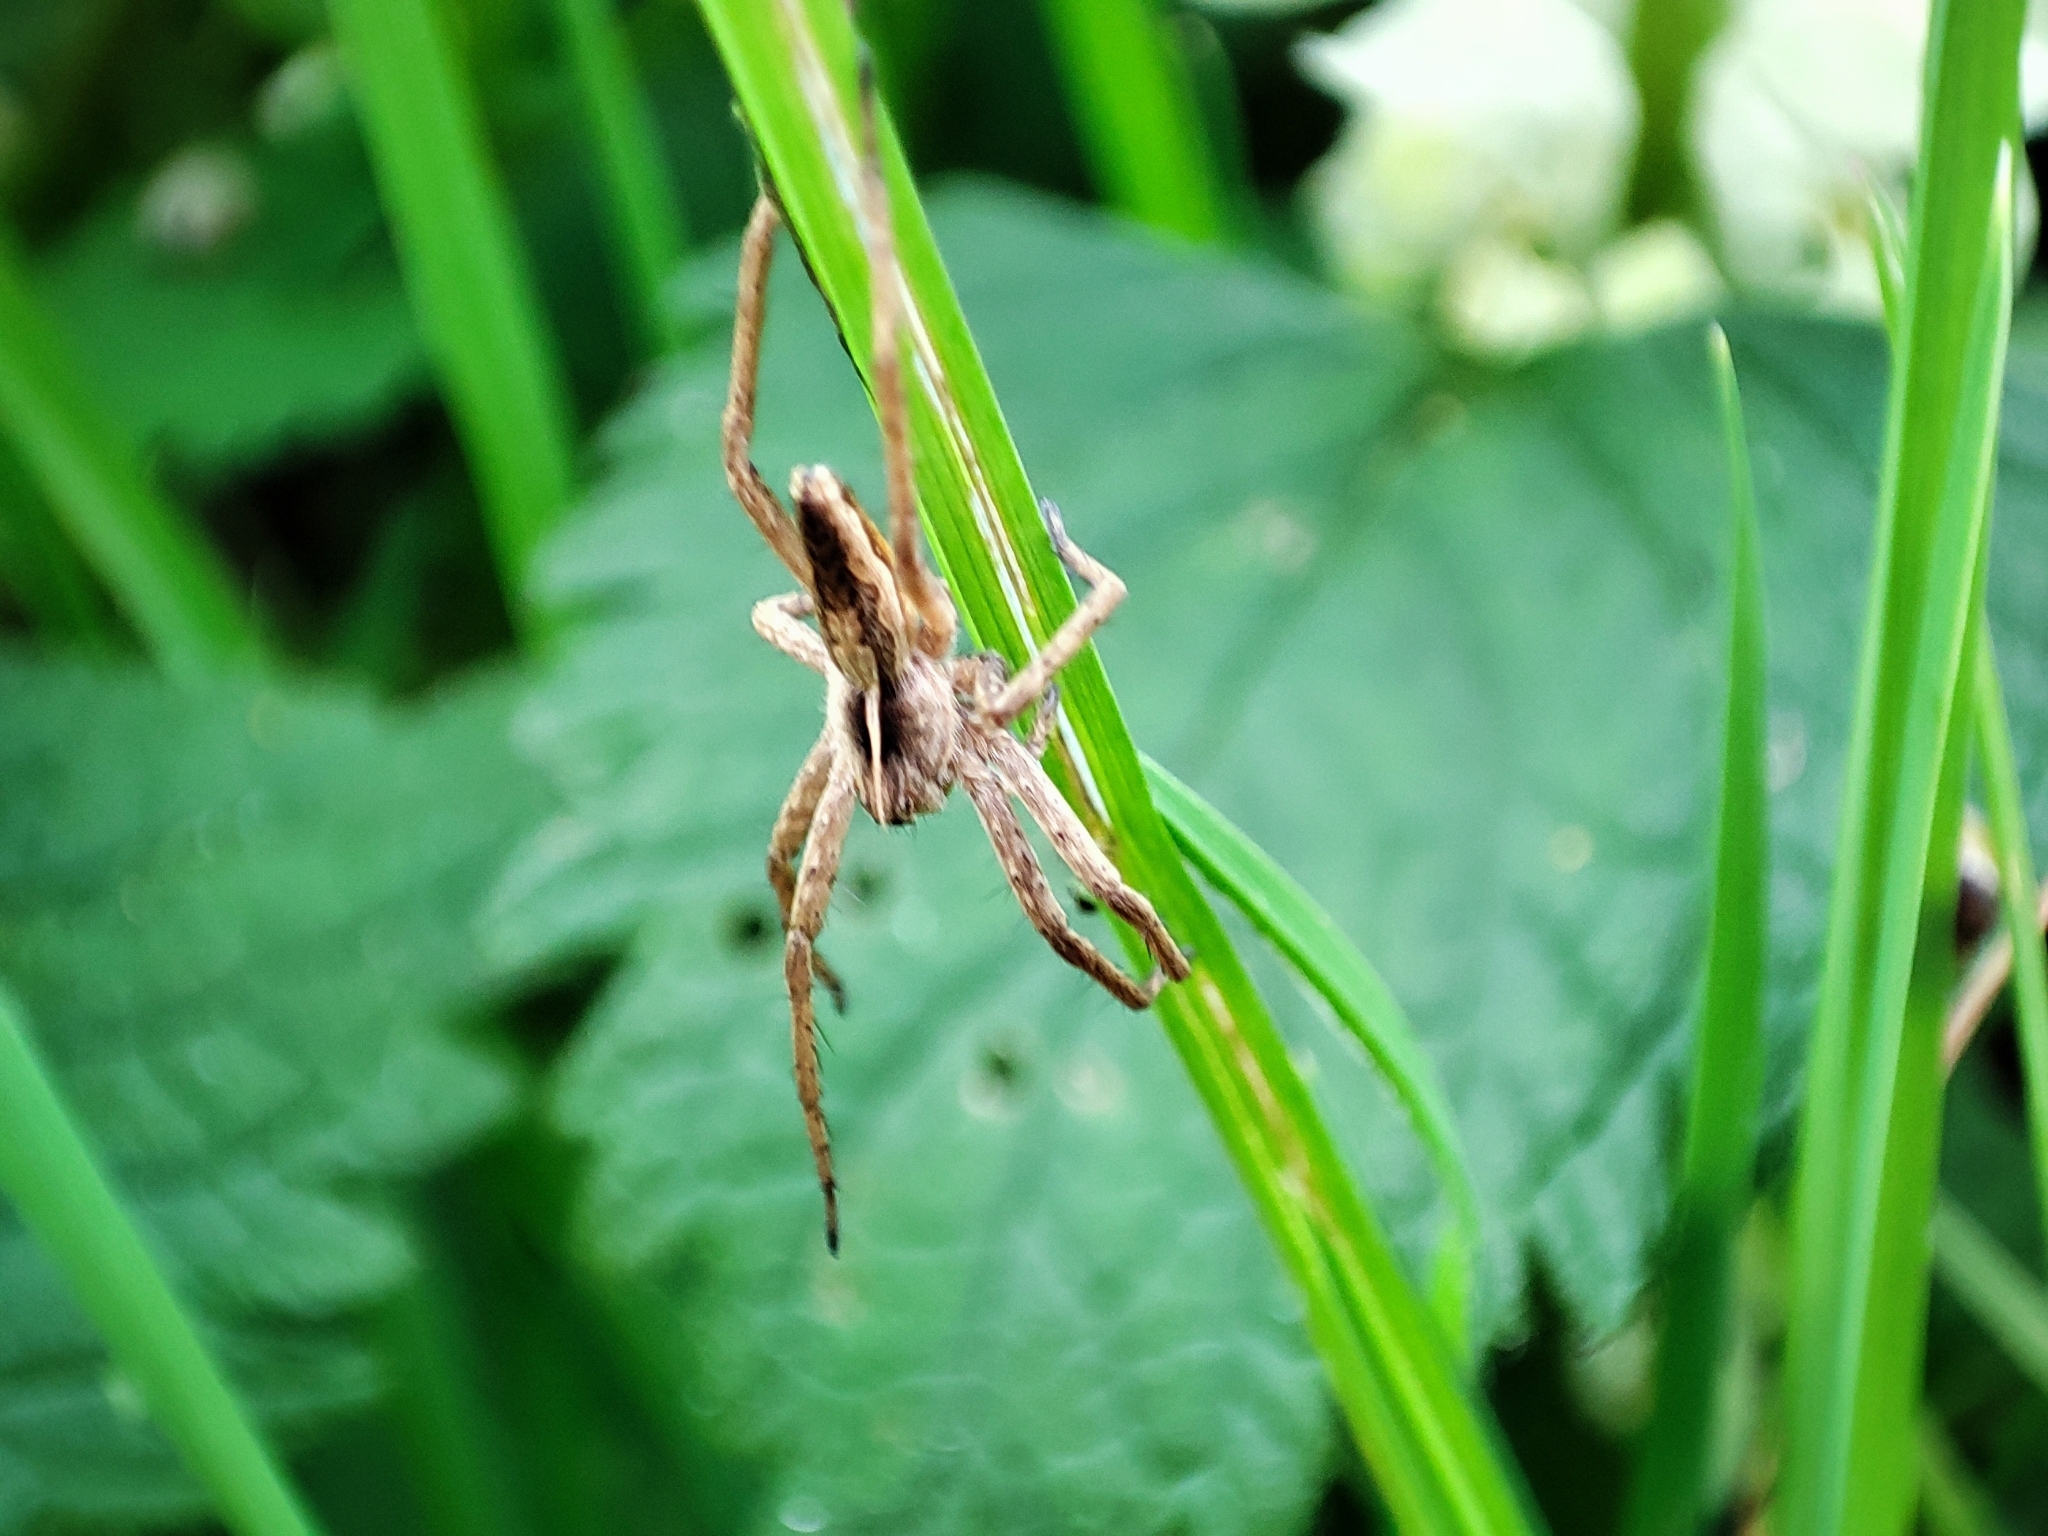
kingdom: Animalia
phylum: Arthropoda
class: Arachnida
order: Araneae
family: Pisauridae
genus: Pisaura
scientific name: Pisaura mirabilis
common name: Tent spider
